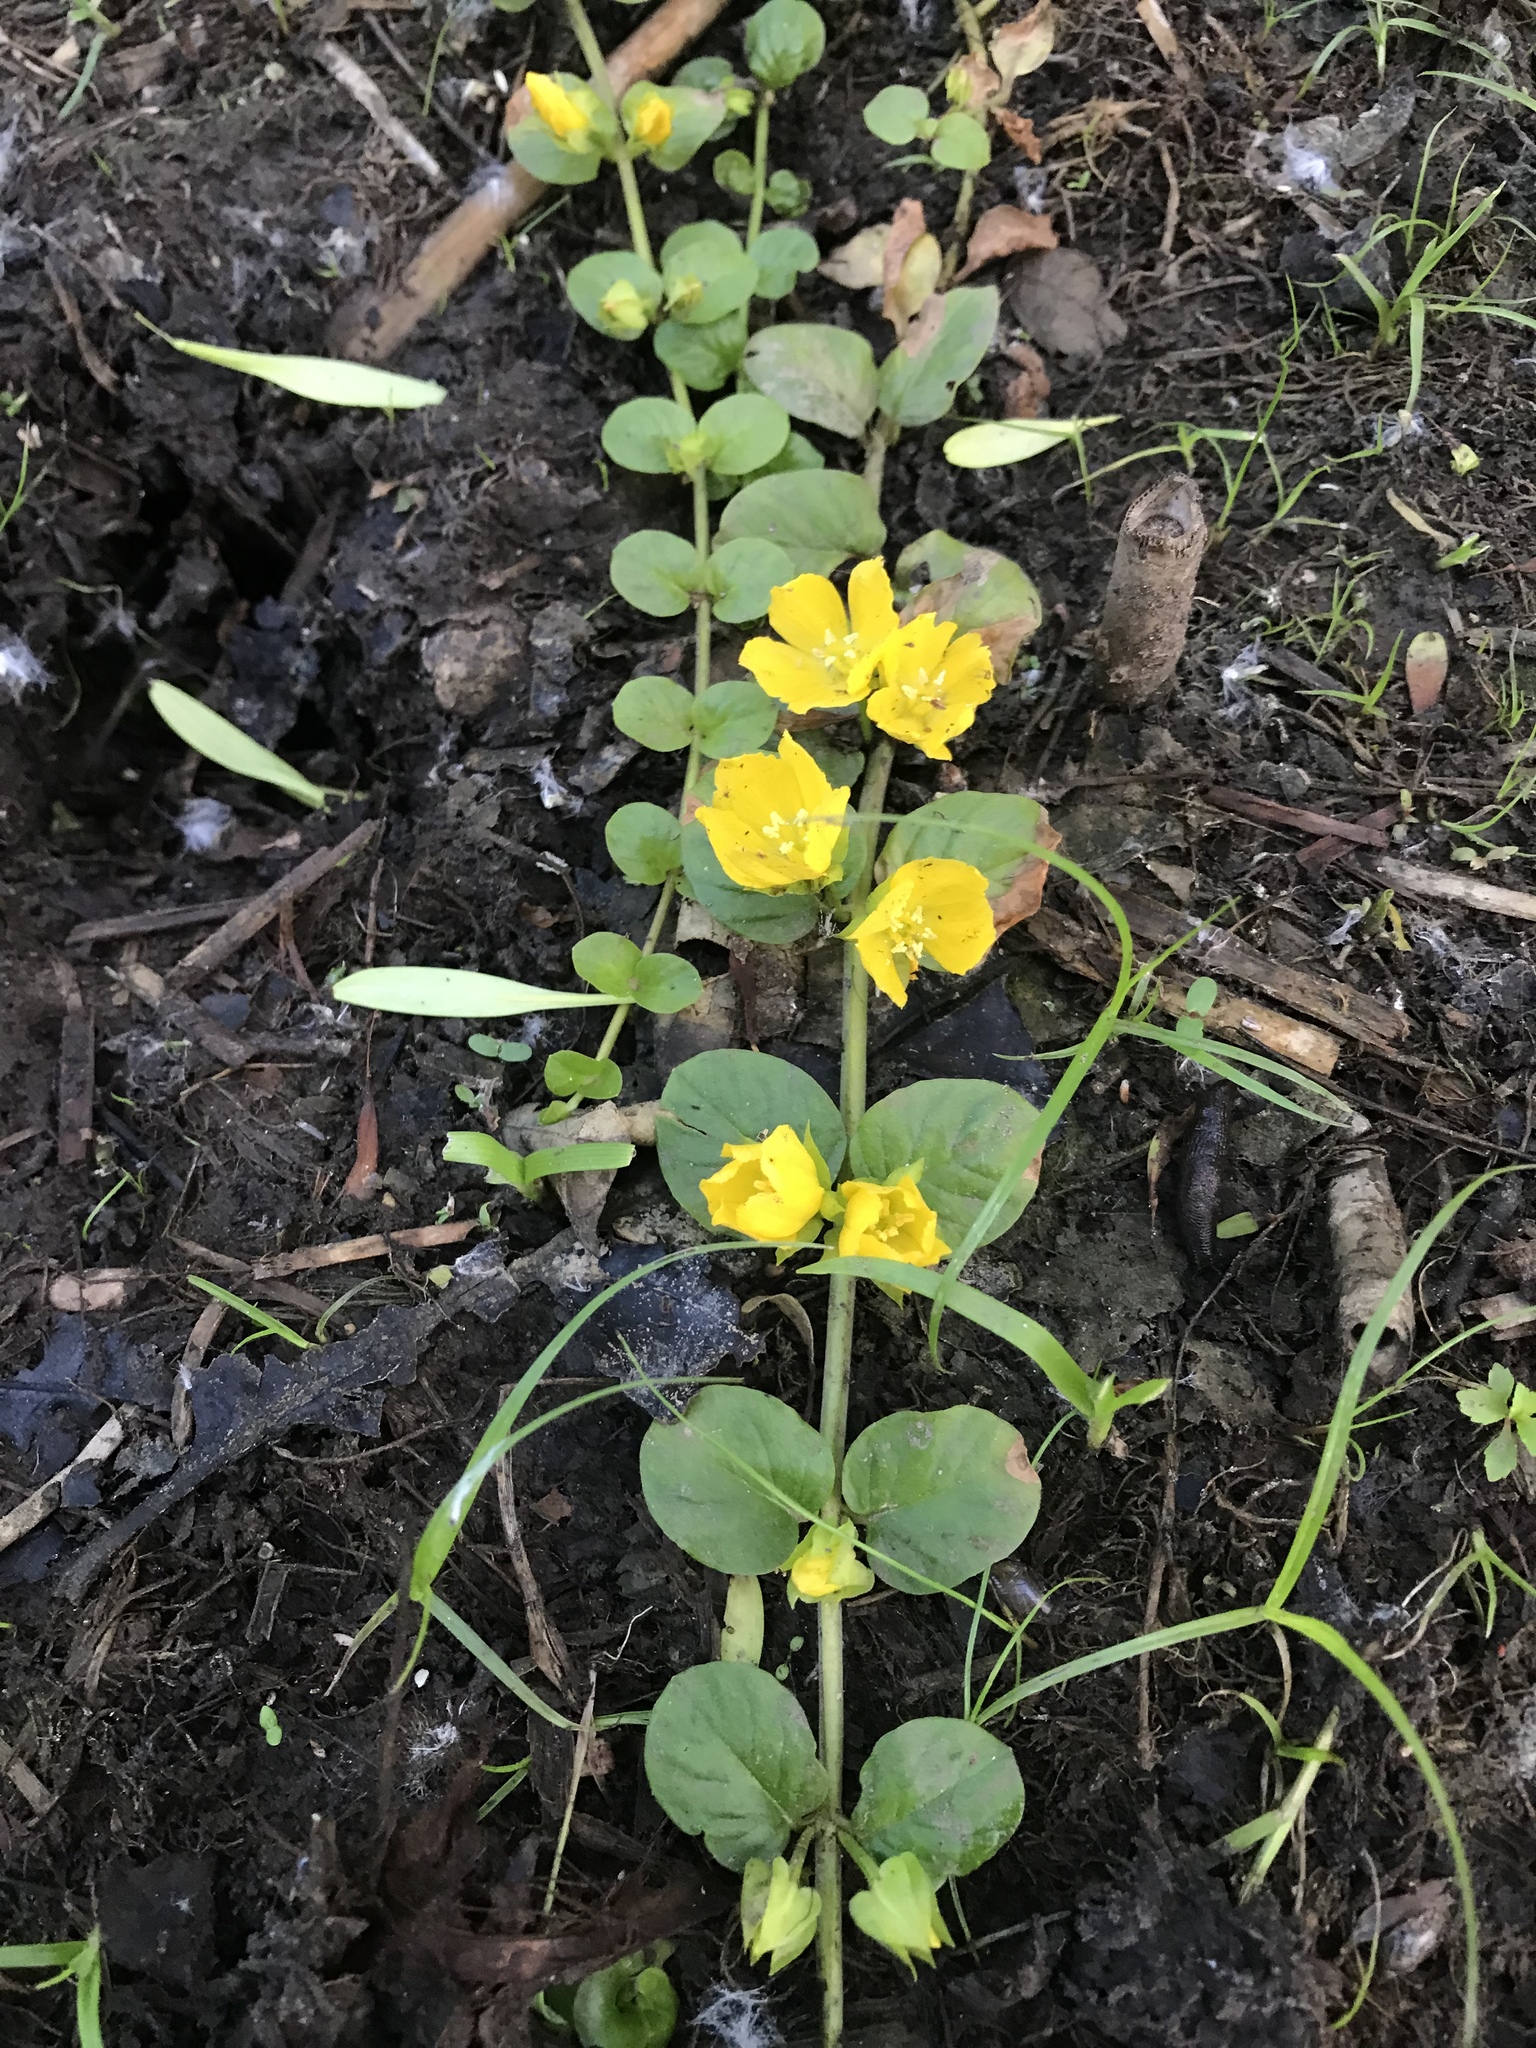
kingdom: Plantae
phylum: Tracheophyta
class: Magnoliopsida
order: Ericales
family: Primulaceae
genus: Lysimachia
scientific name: Lysimachia nummularia
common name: Moneywort
